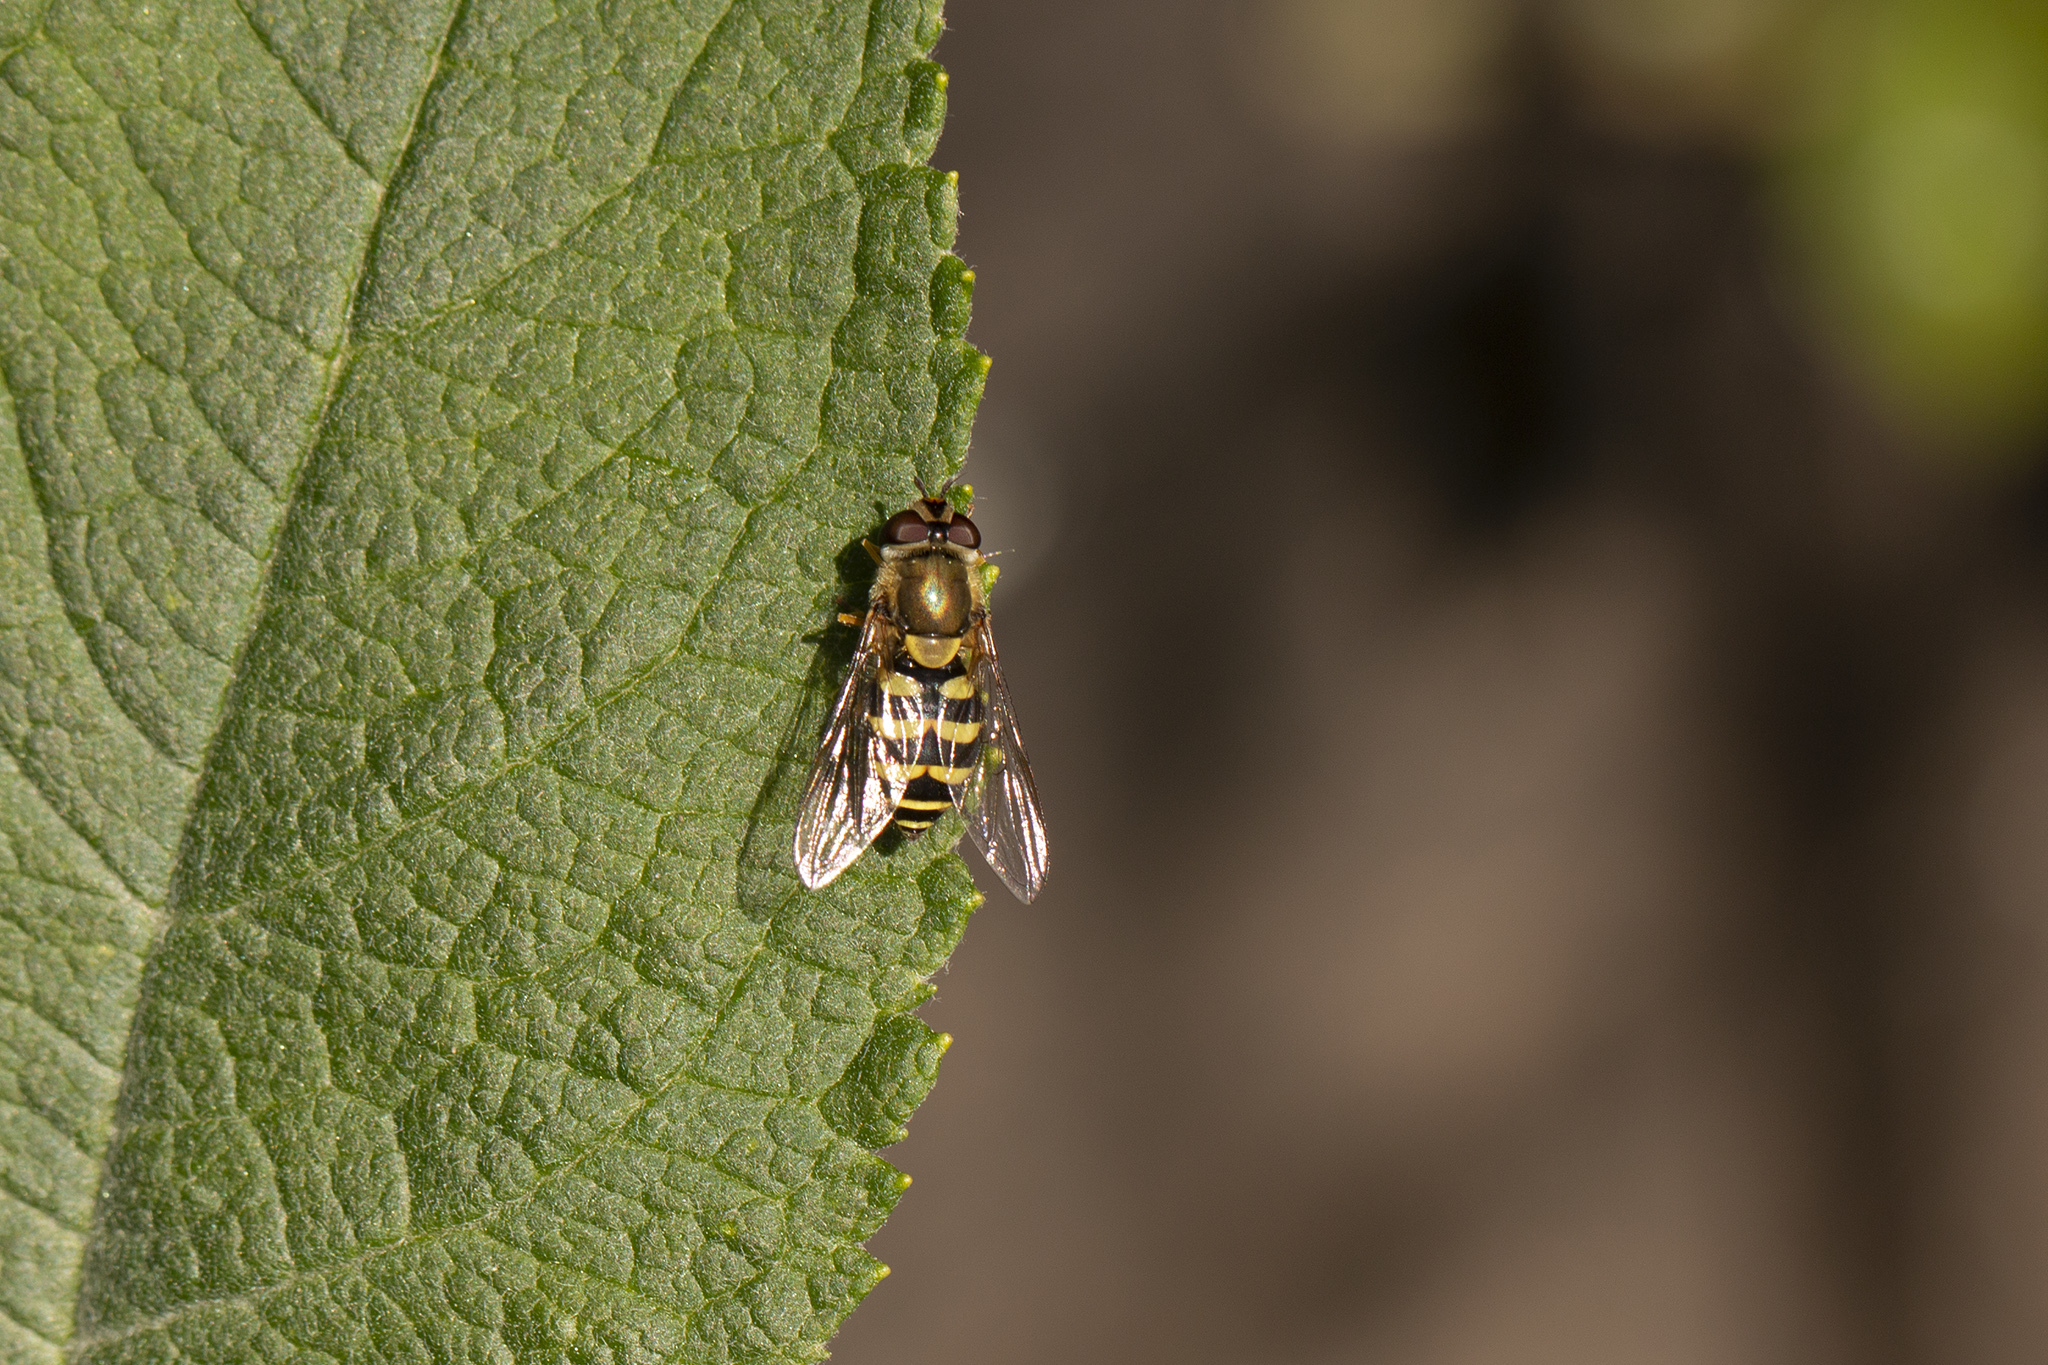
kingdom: Animalia
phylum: Arthropoda
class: Insecta
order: Diptera
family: Syrphidae
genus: Syrphus
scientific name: Syrphus
